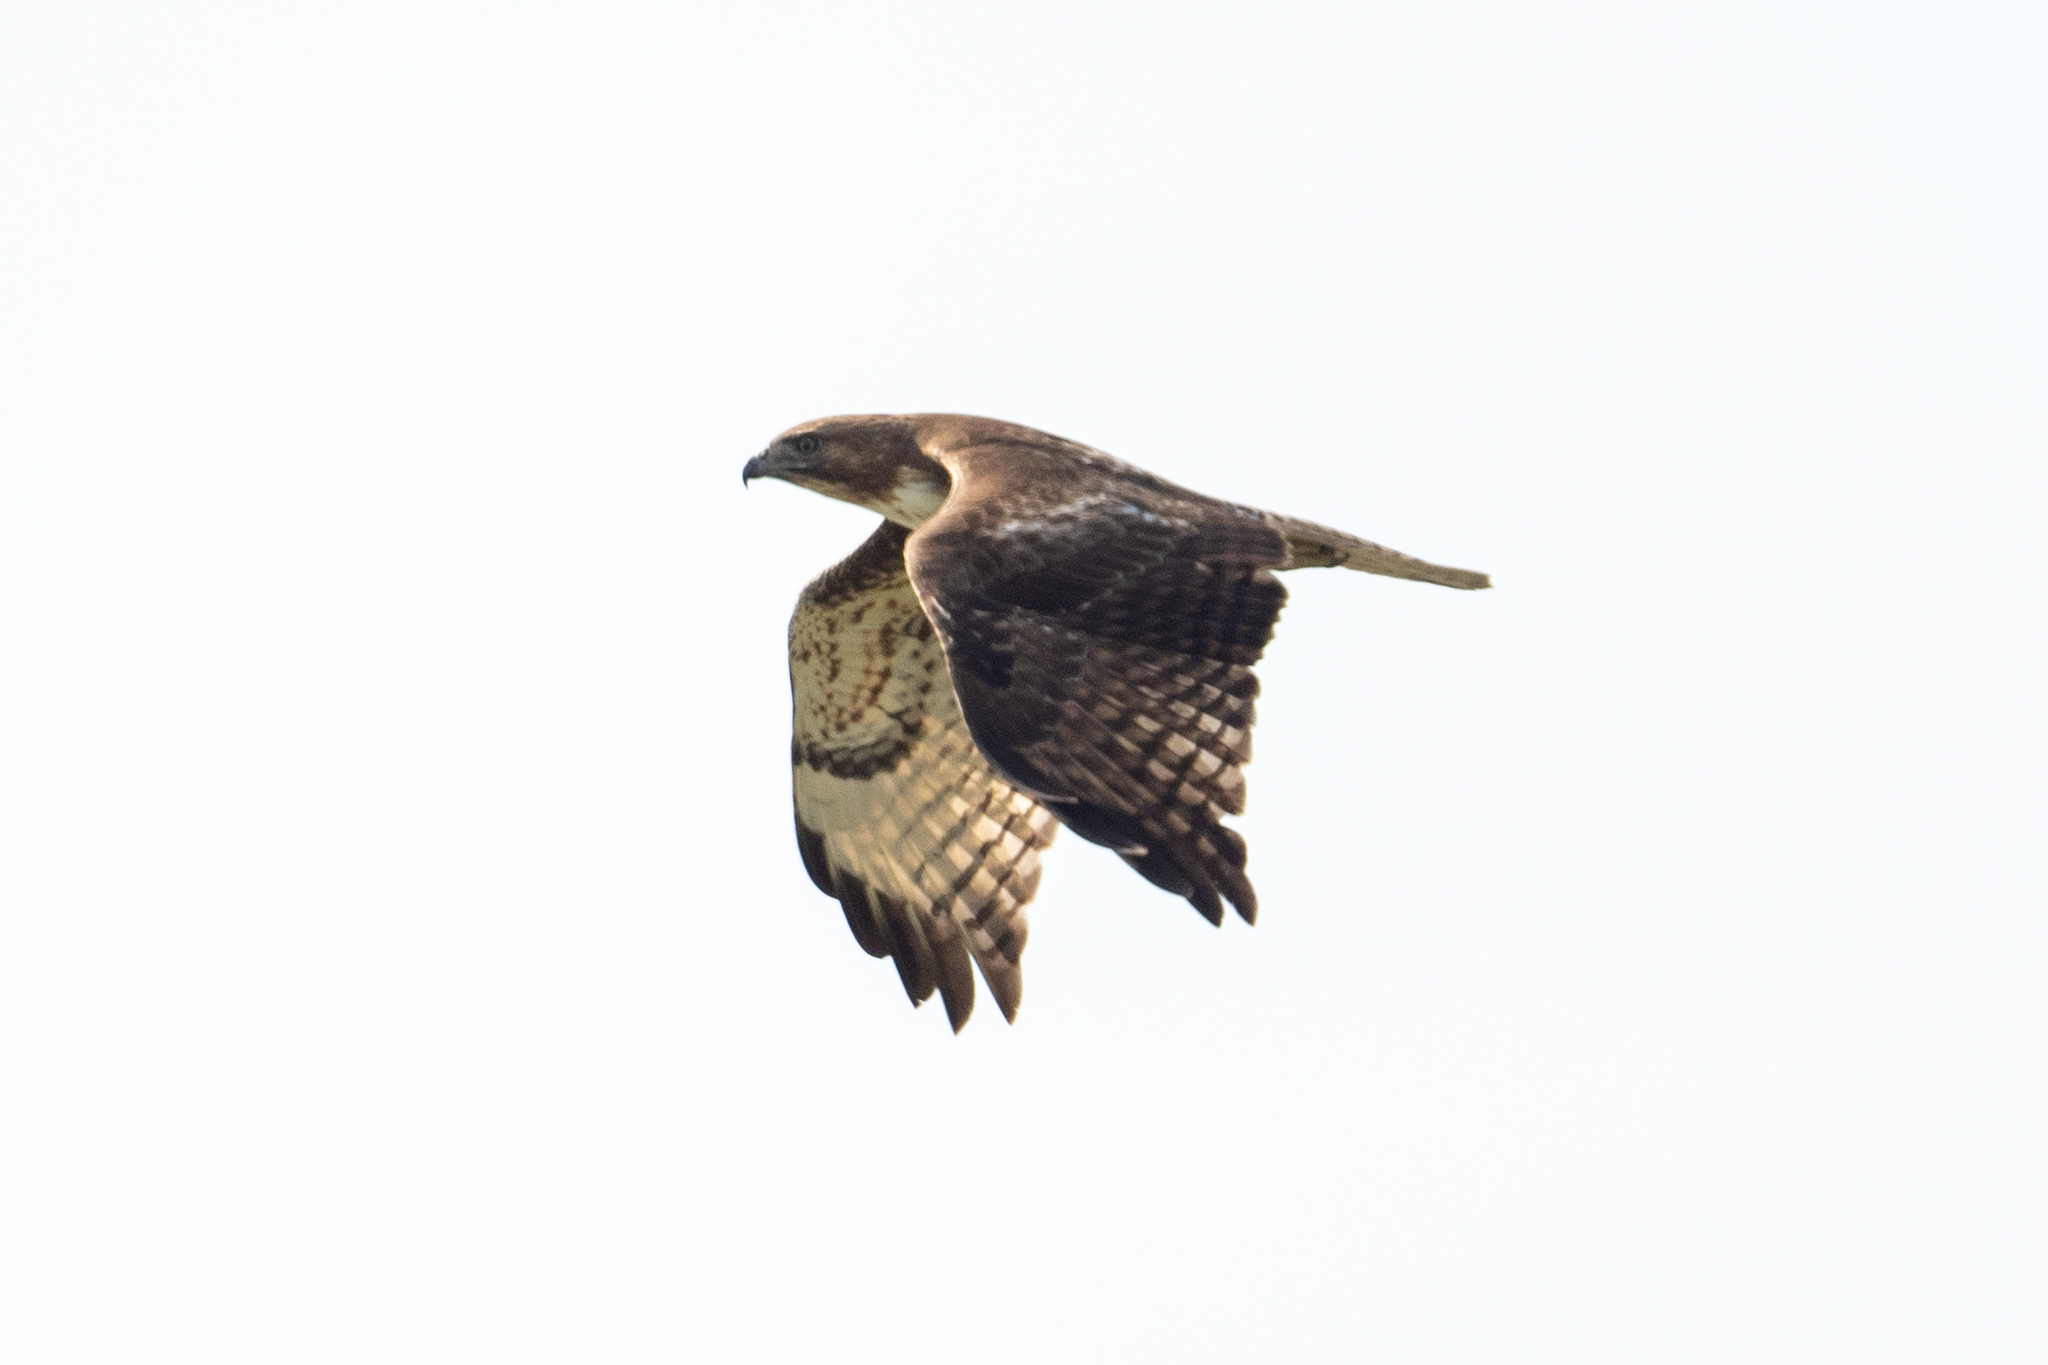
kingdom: Animalia
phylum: Chordata
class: Aves
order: Accipitriformes
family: Accipitridae
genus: Buteo
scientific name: Buteo jamaicensis
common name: Red-tailed hawk
